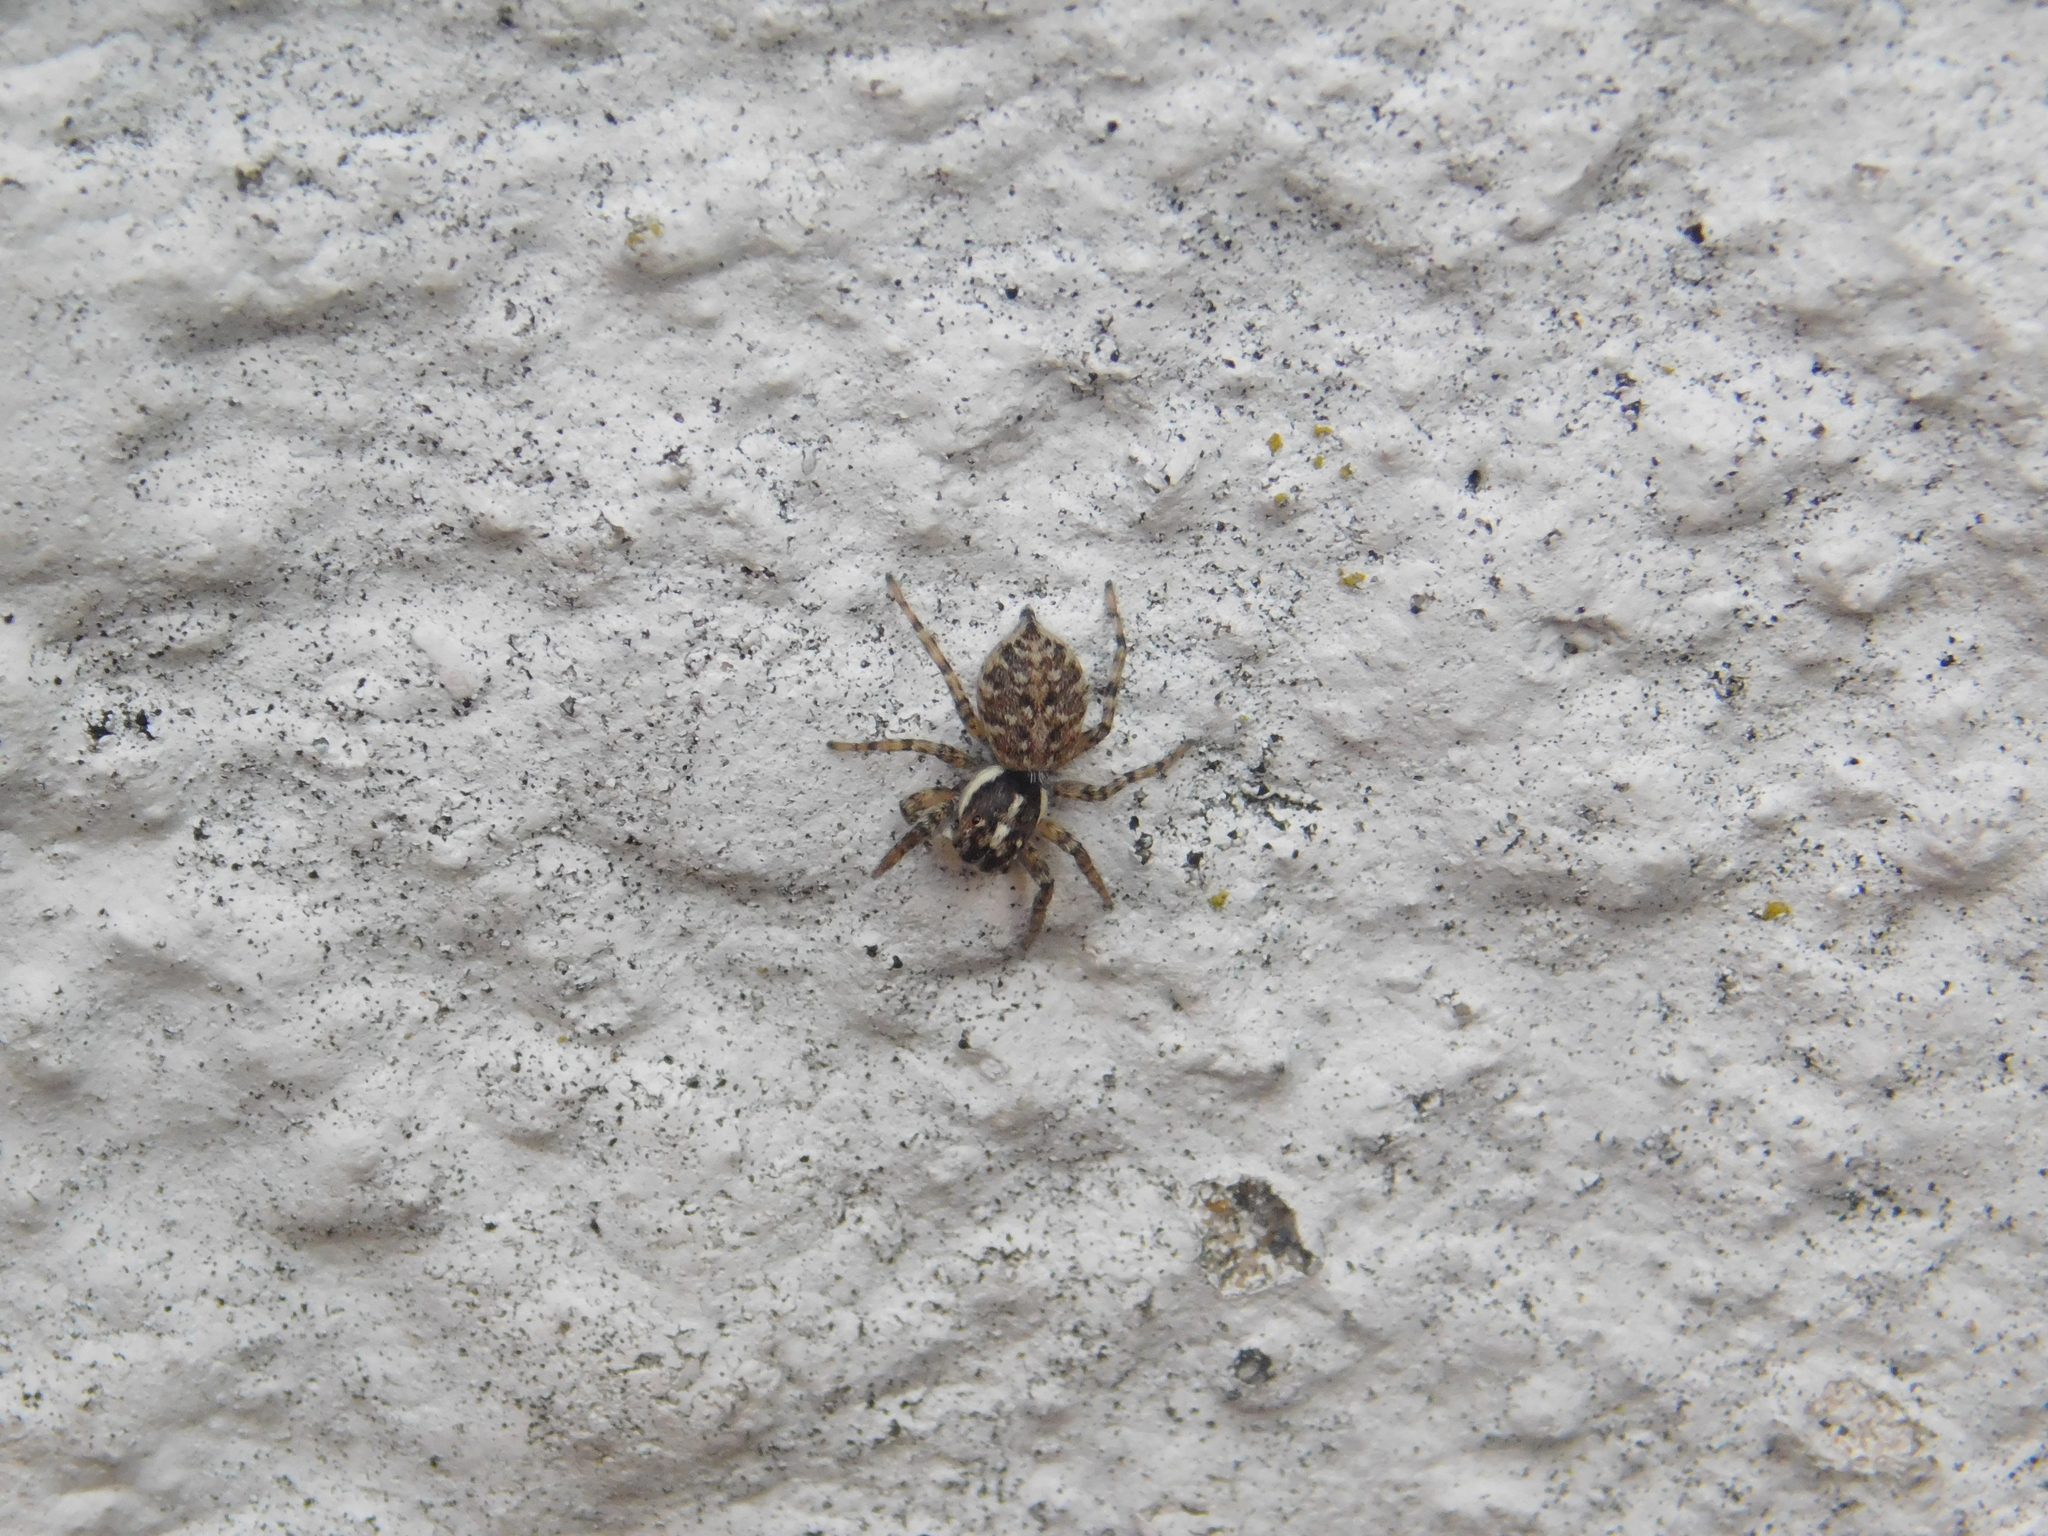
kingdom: Animalia
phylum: Arthropoda
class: Arachnida
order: Araneae
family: Salticidae
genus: Menemerus
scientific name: Menemerus semilimbatus
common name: Jumping spider
